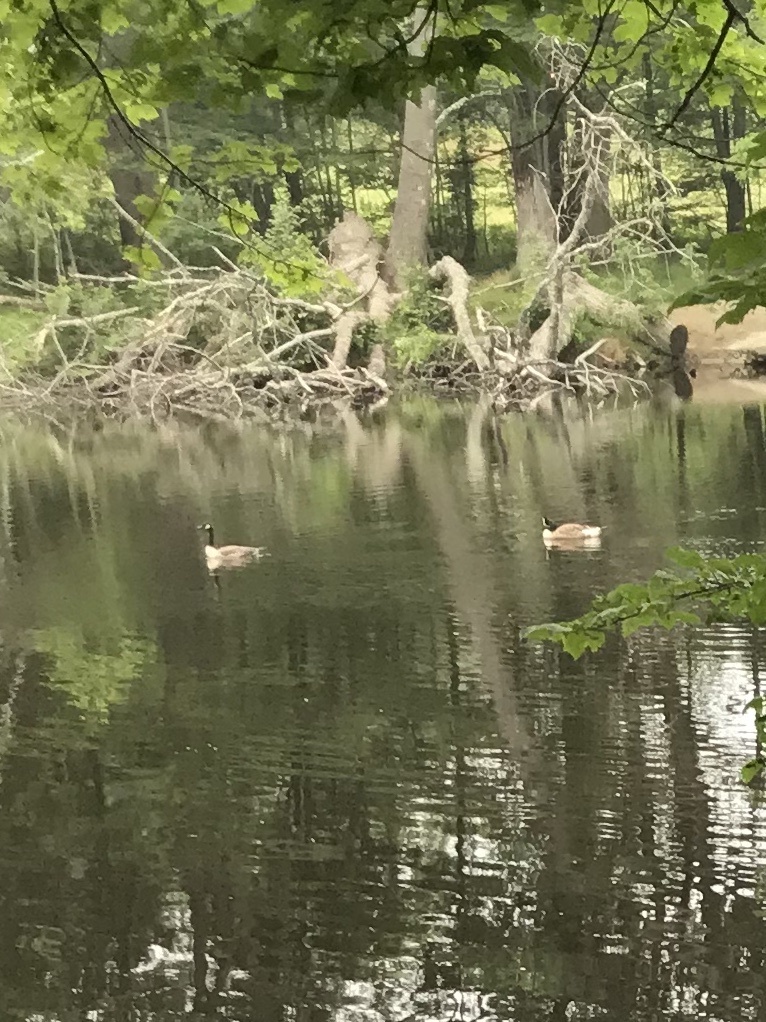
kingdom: Animalia
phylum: Chordata
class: Aves
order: Anseriformes
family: Anatidae
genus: Branta
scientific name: Branta canadensis
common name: Canada goose
